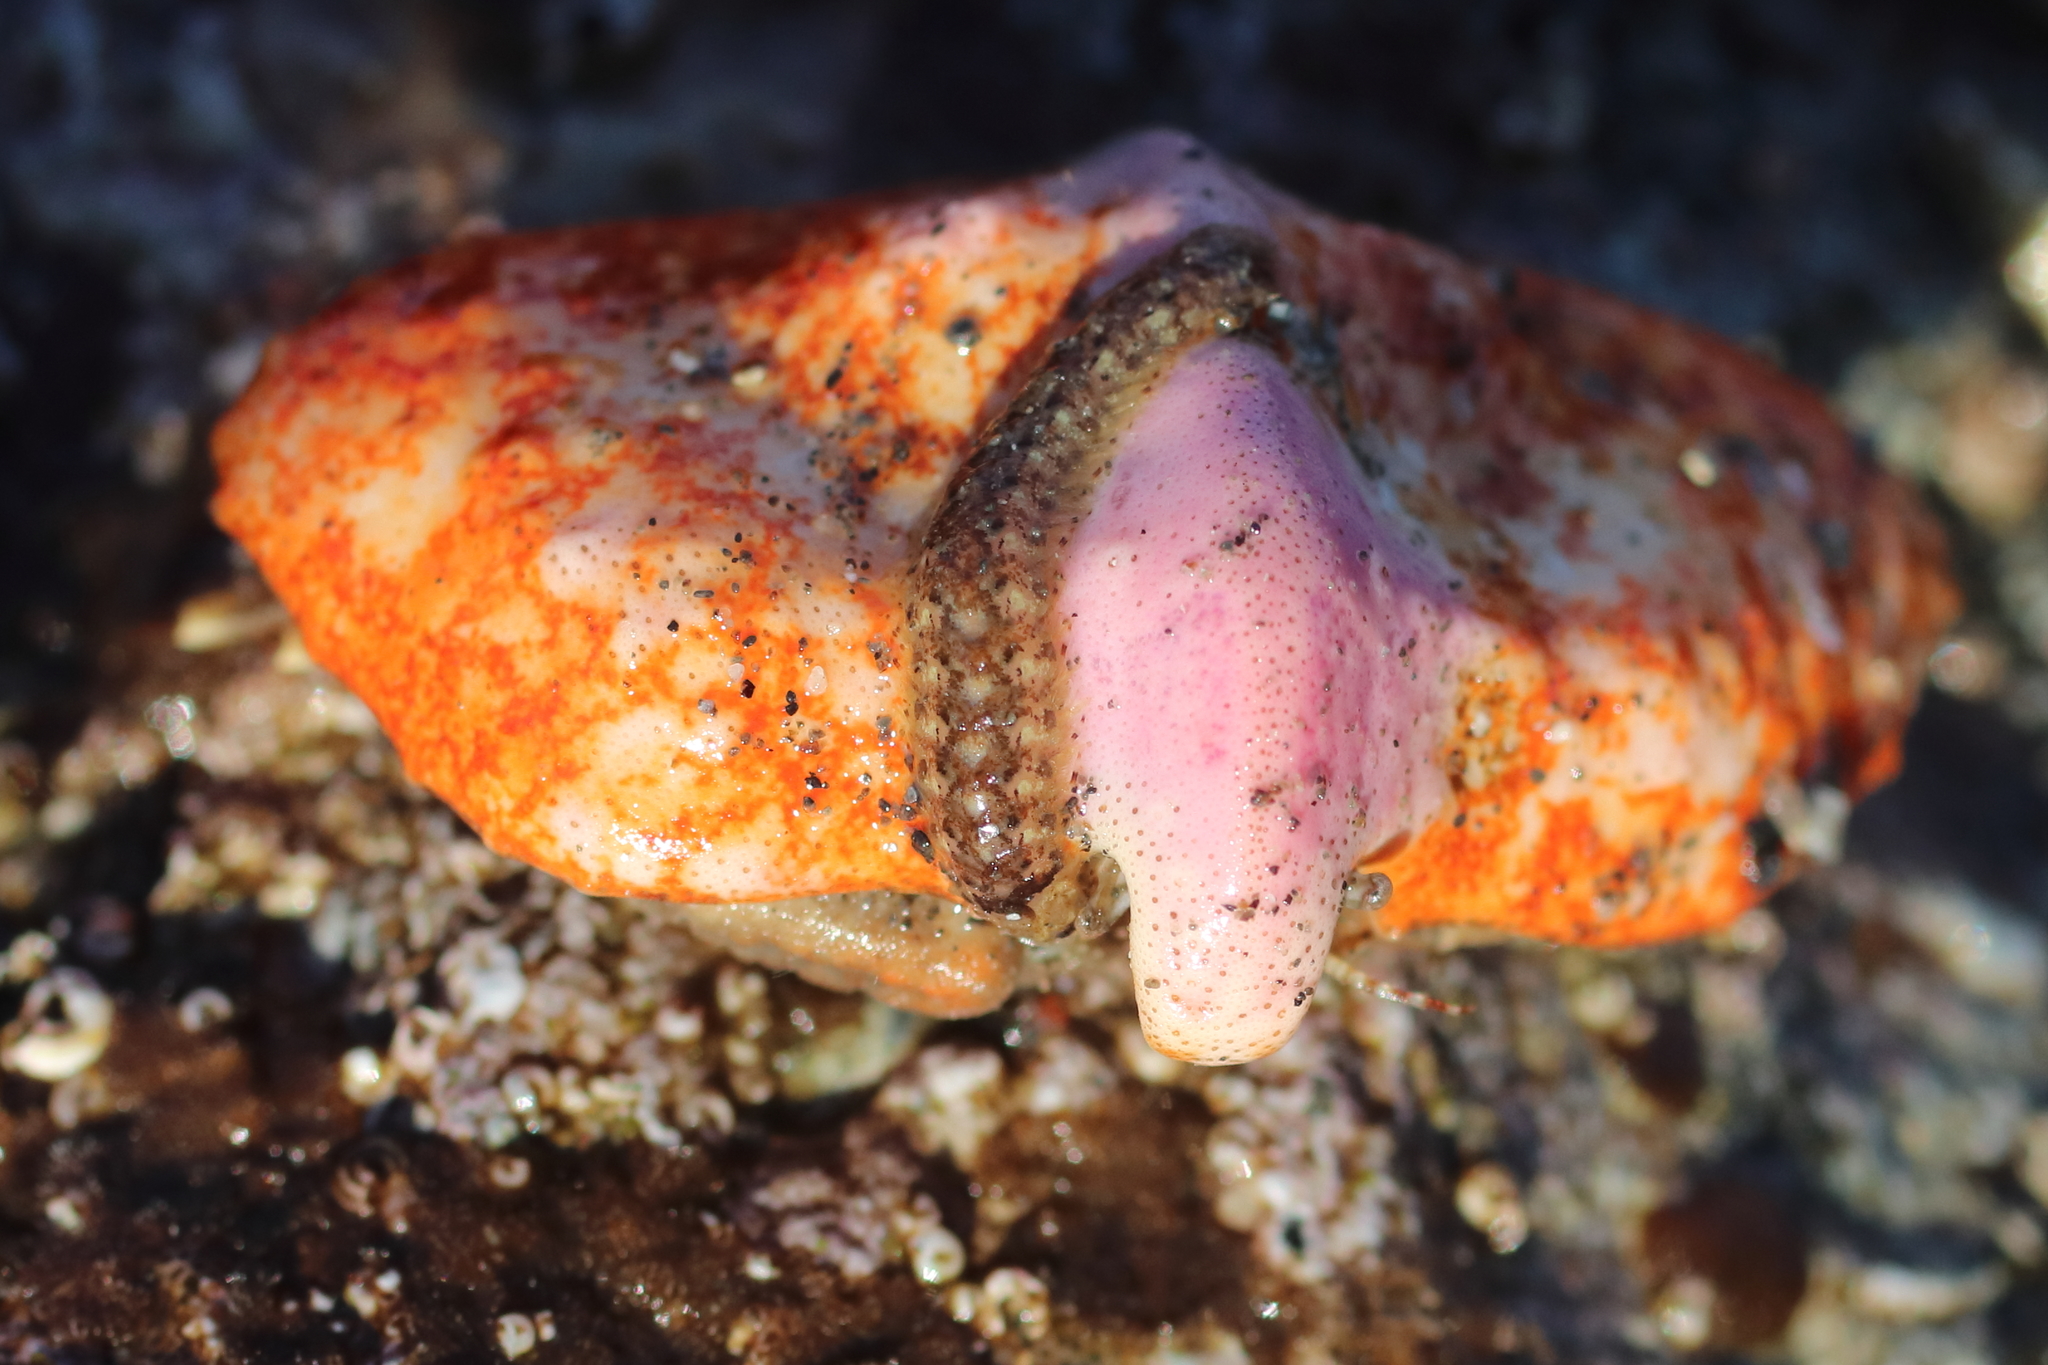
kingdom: Animalia
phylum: Annelida
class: Polychaeta
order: Phyllodocida
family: Polynoidae
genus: Arctonoe
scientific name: Arctonoe vittata
